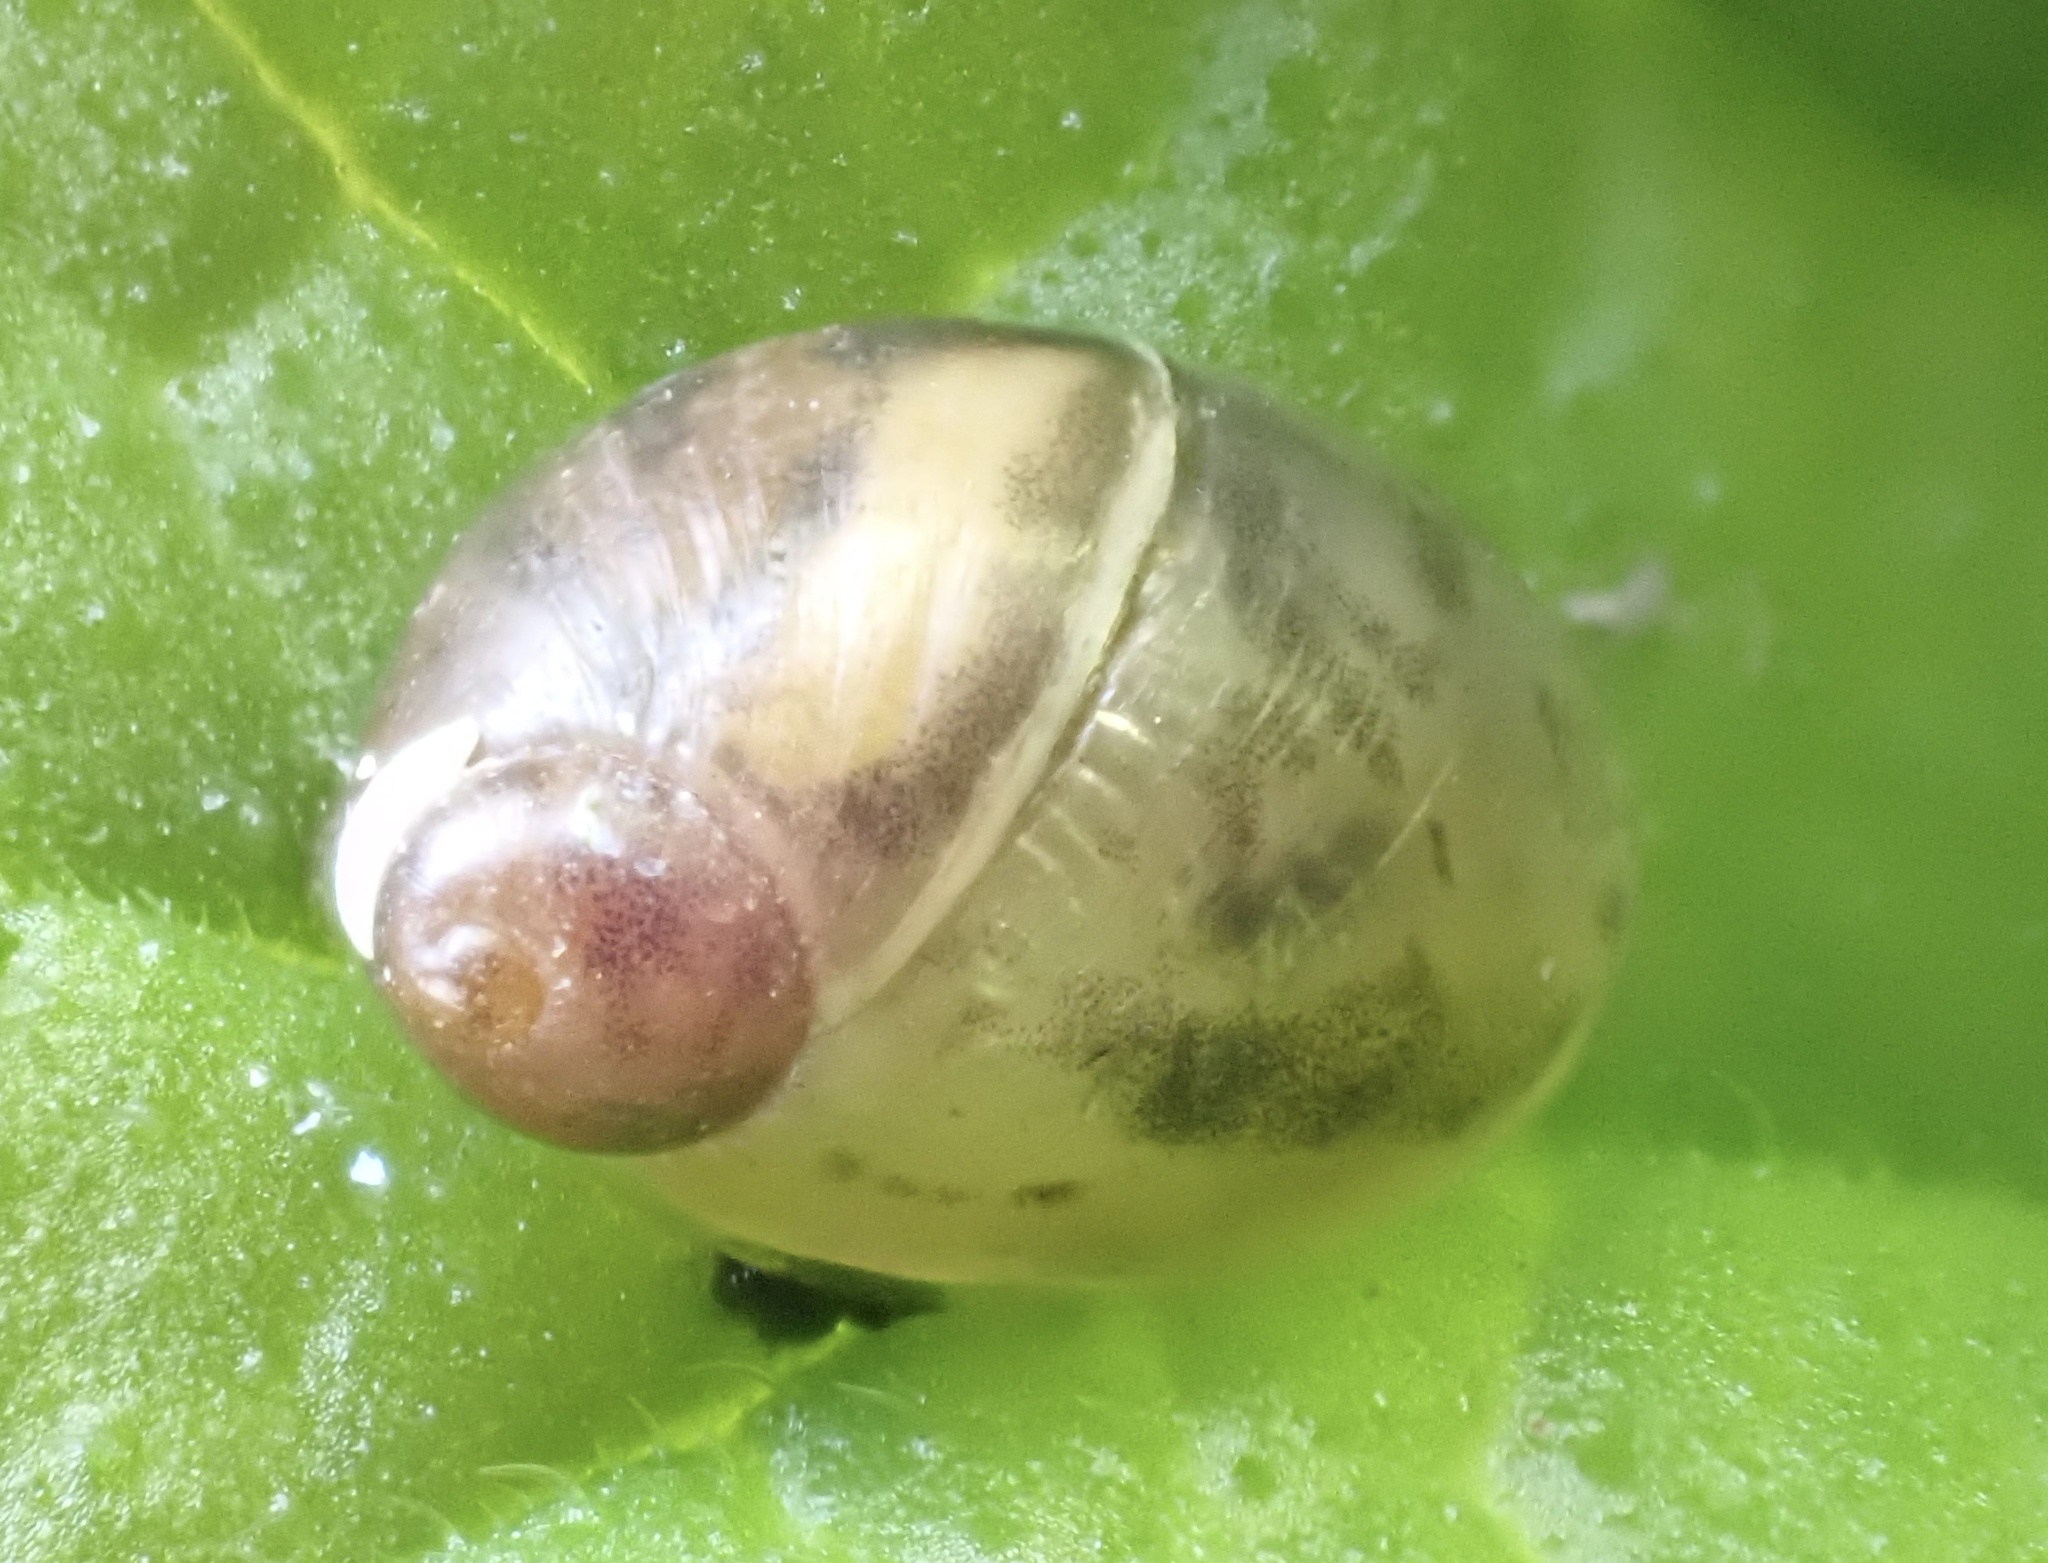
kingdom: Animalia
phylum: Mollusca
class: Gastropoda
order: Stylommatophora
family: Succineidae
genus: Succinea
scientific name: Succinea putris
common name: European ambersnail
